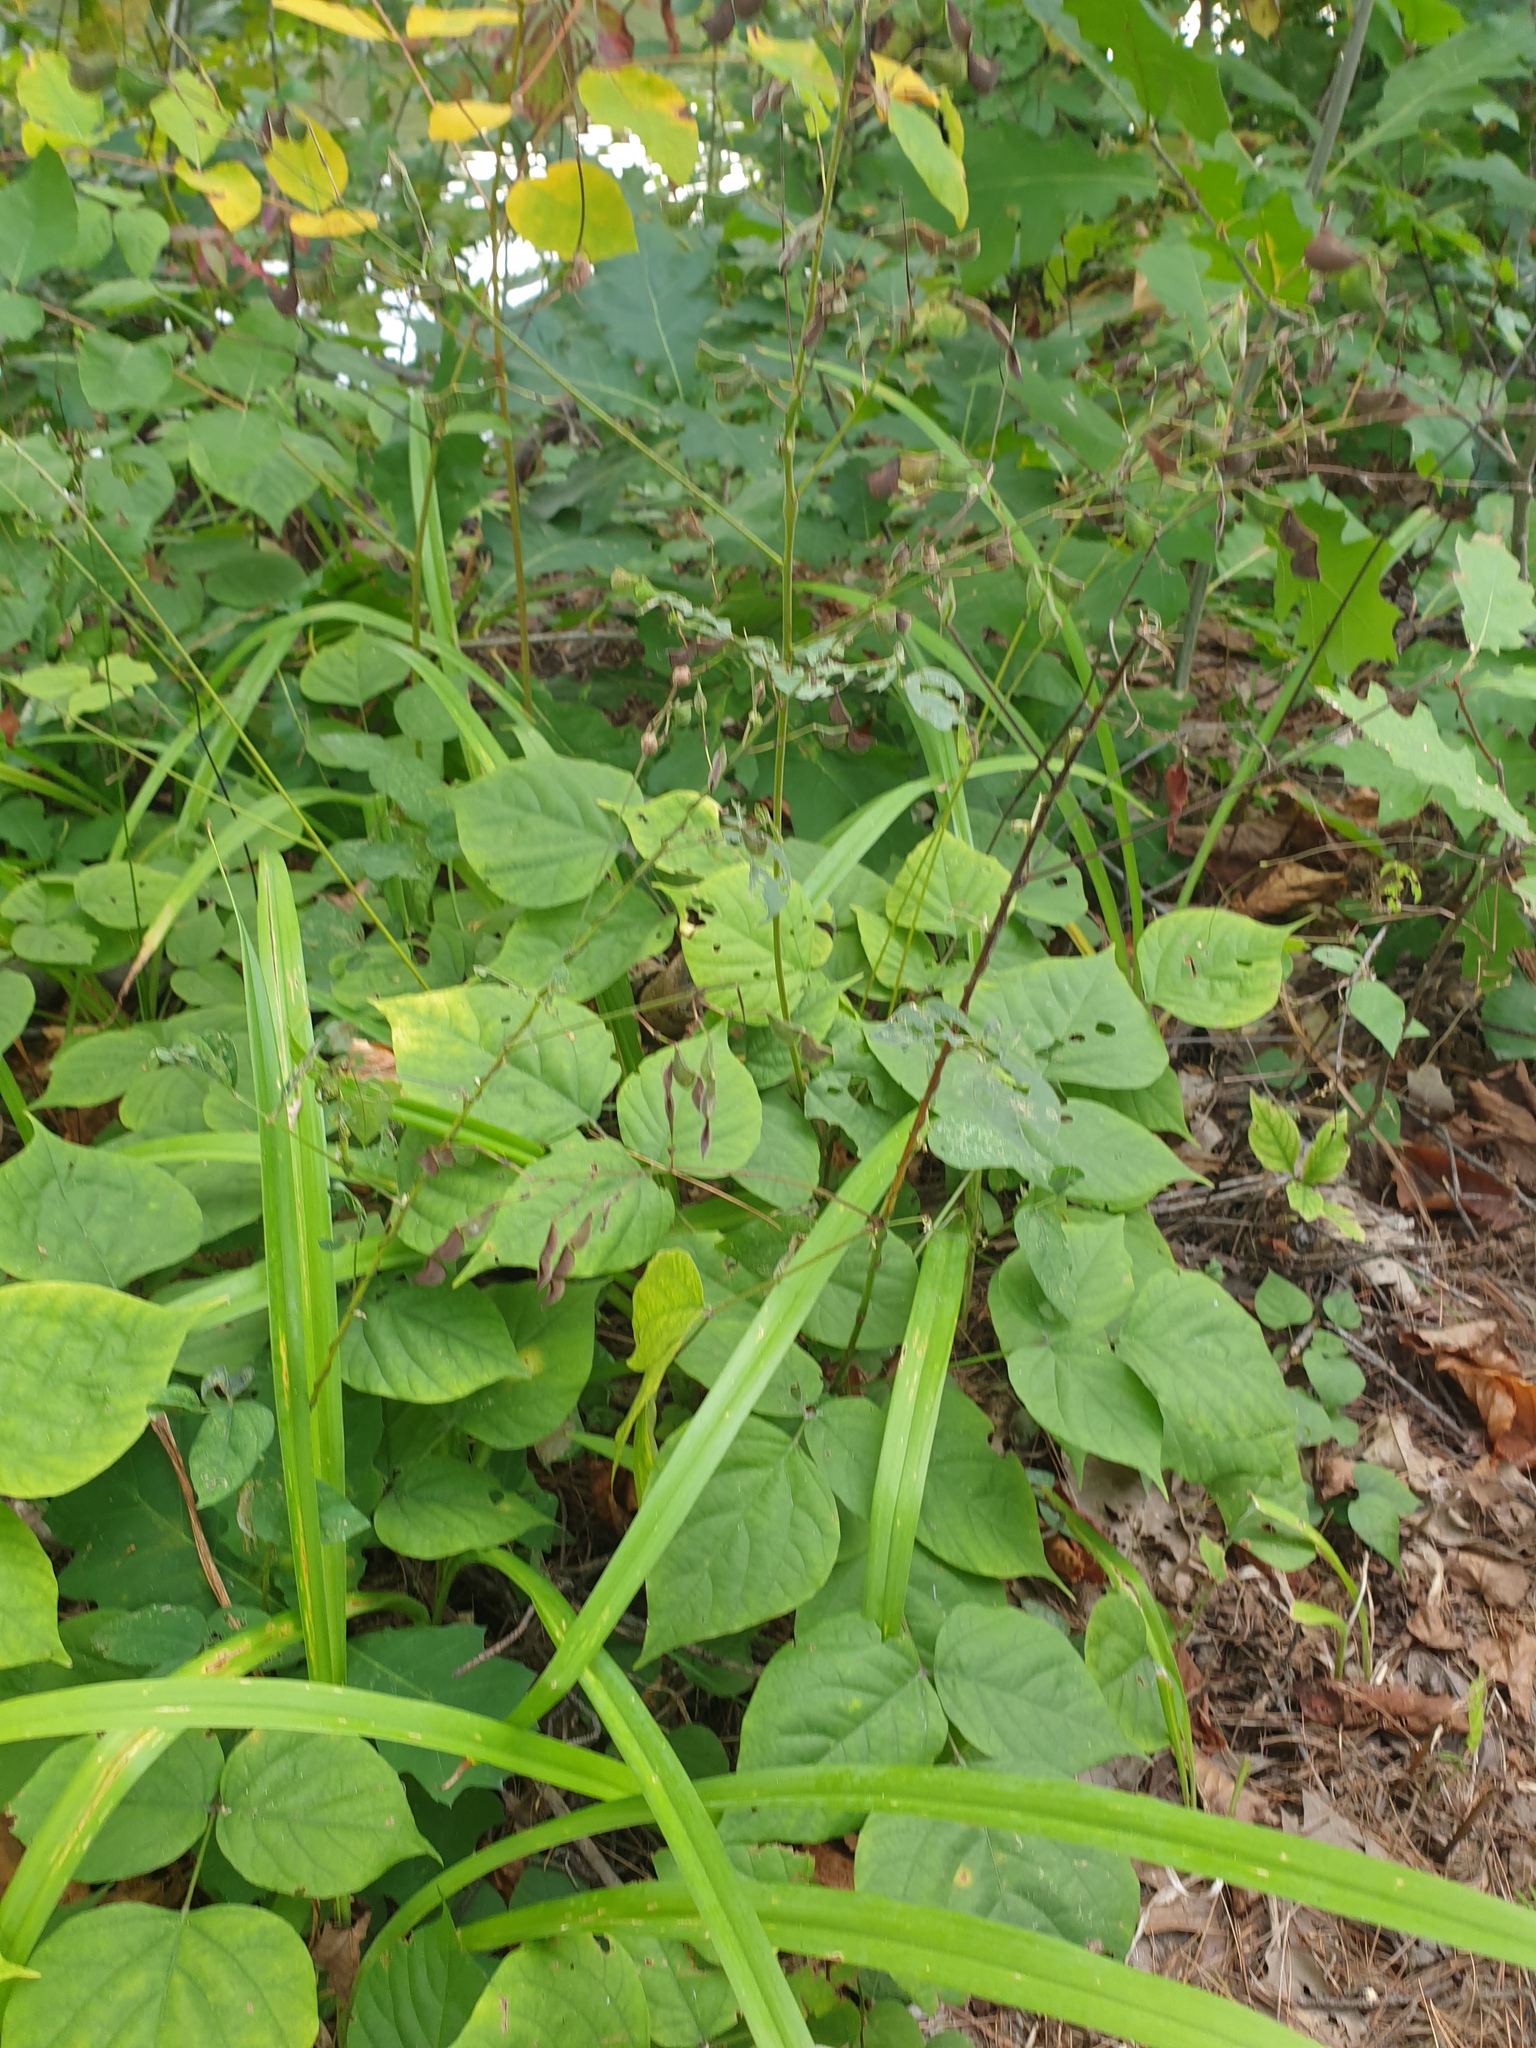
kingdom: Plantae
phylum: Tracheophyta
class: Magnoliopsida
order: Fabales
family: Fabaceae
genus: Hylodesmum
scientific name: Hylodesmum glutinosum
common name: Clustered-leaved tick-trefoil
